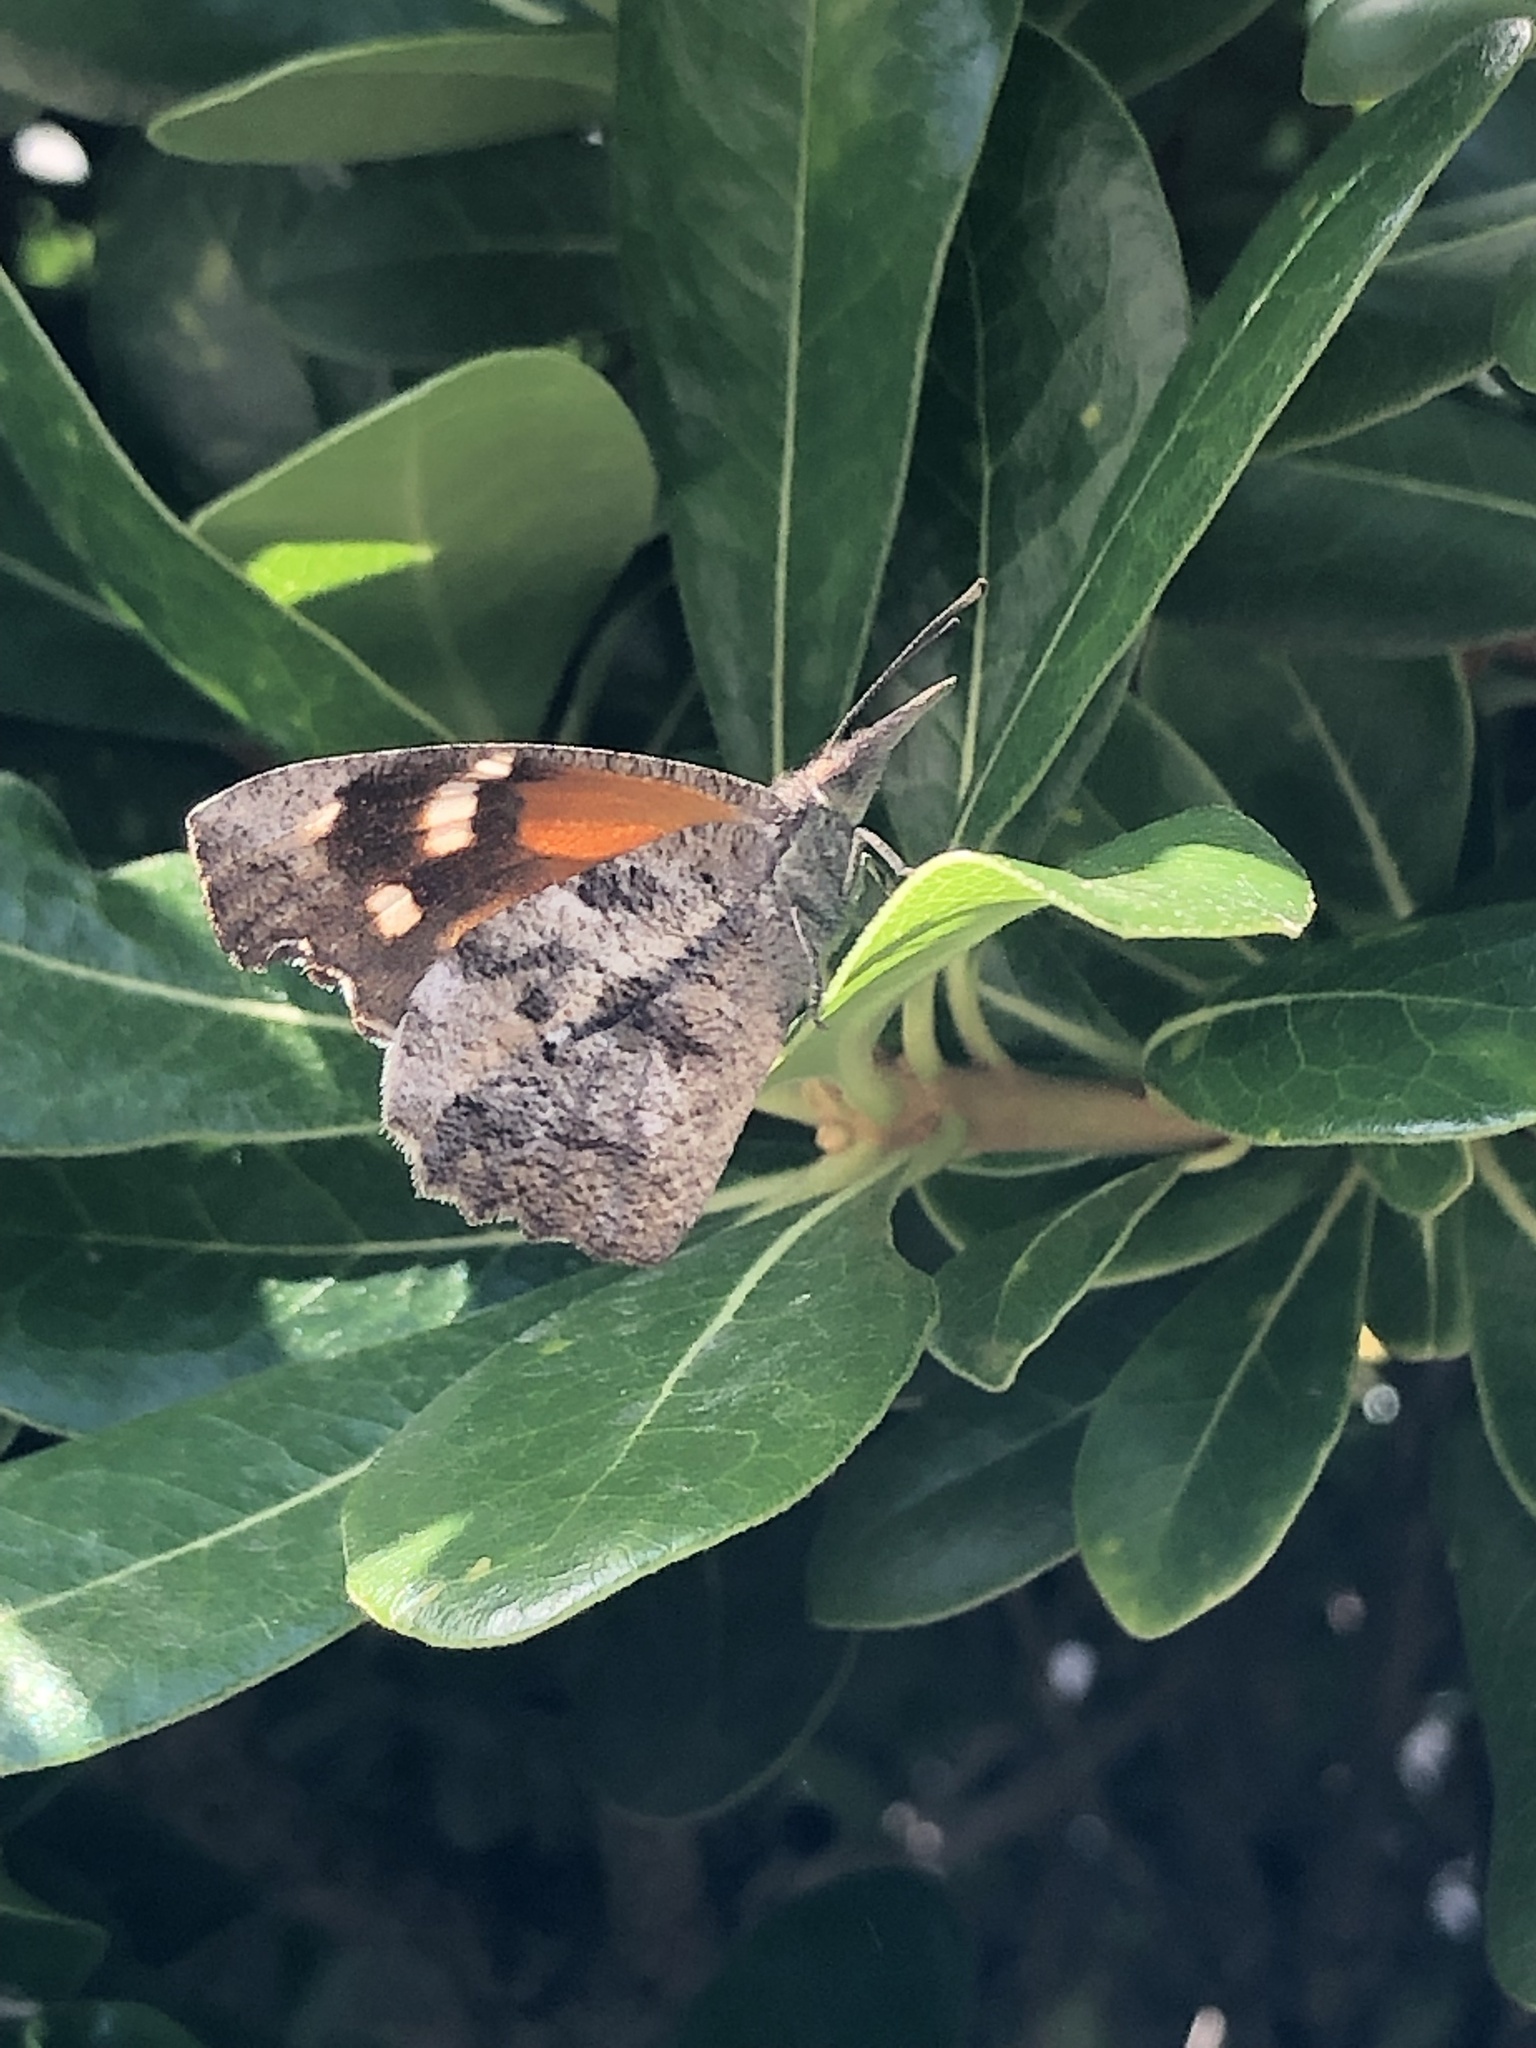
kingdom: Animalia
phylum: Arthropoda
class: Insecta
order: Lepidoptera
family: Nymphalidae
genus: Libytheana
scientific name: Libytheana carinenta
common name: American snout
